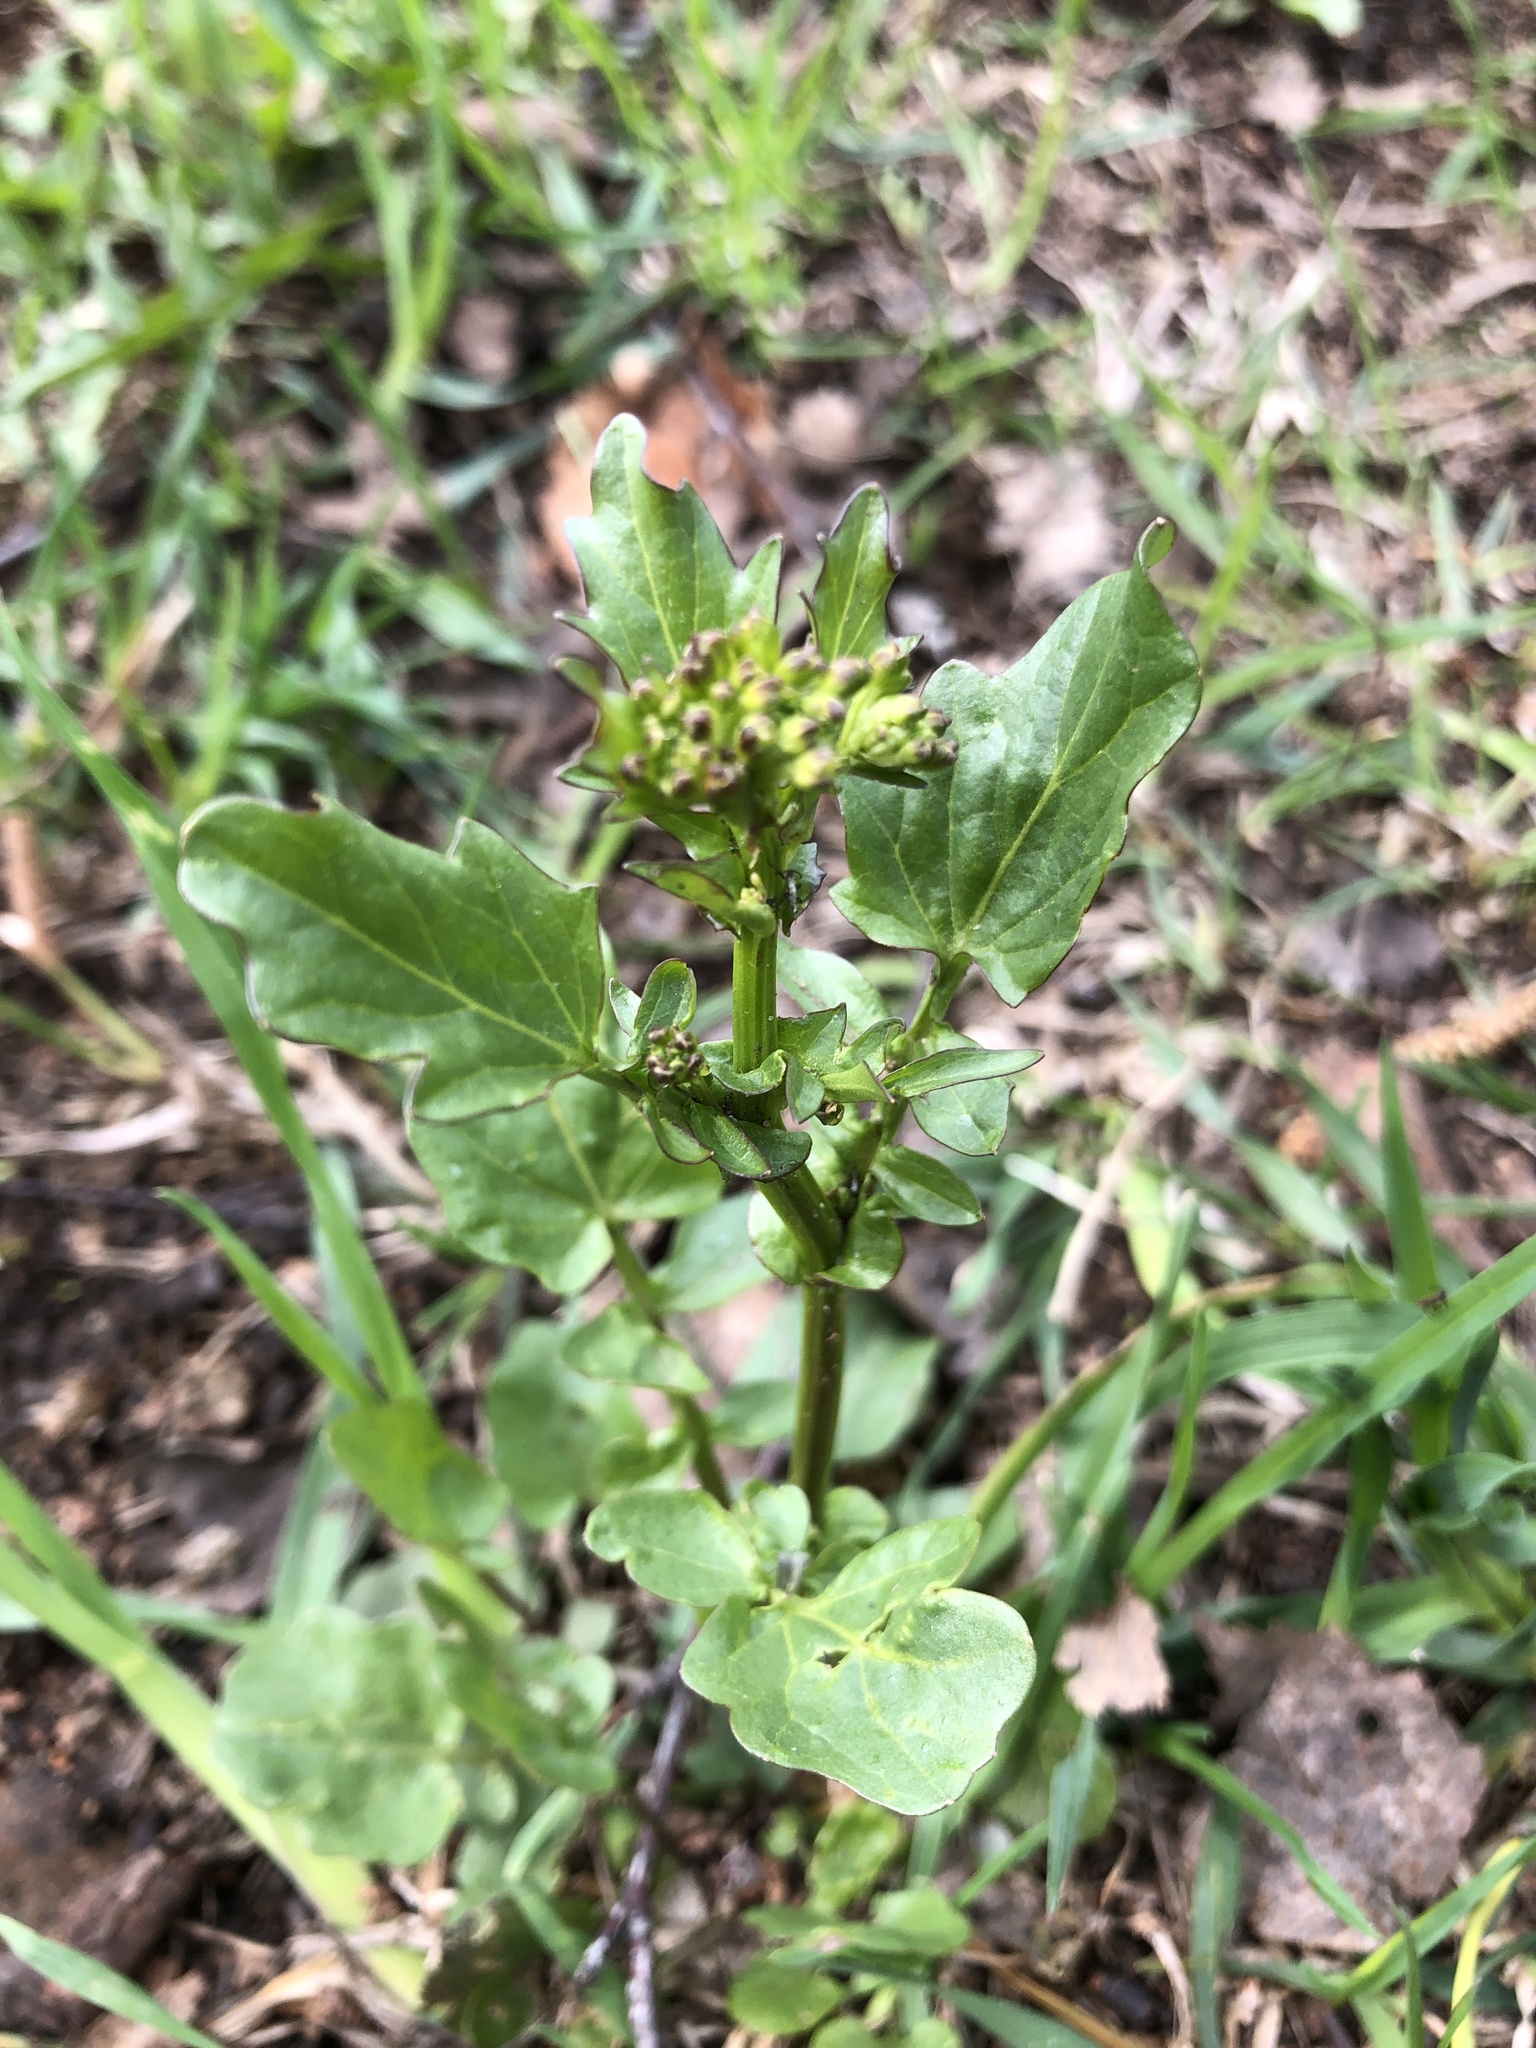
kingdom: Plantae
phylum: Tracheophyta
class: Magnoliopsida
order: Brassicales
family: Brassicaceae
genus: Barbarea
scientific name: Barbarea vulgaris
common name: Cressy-greens
